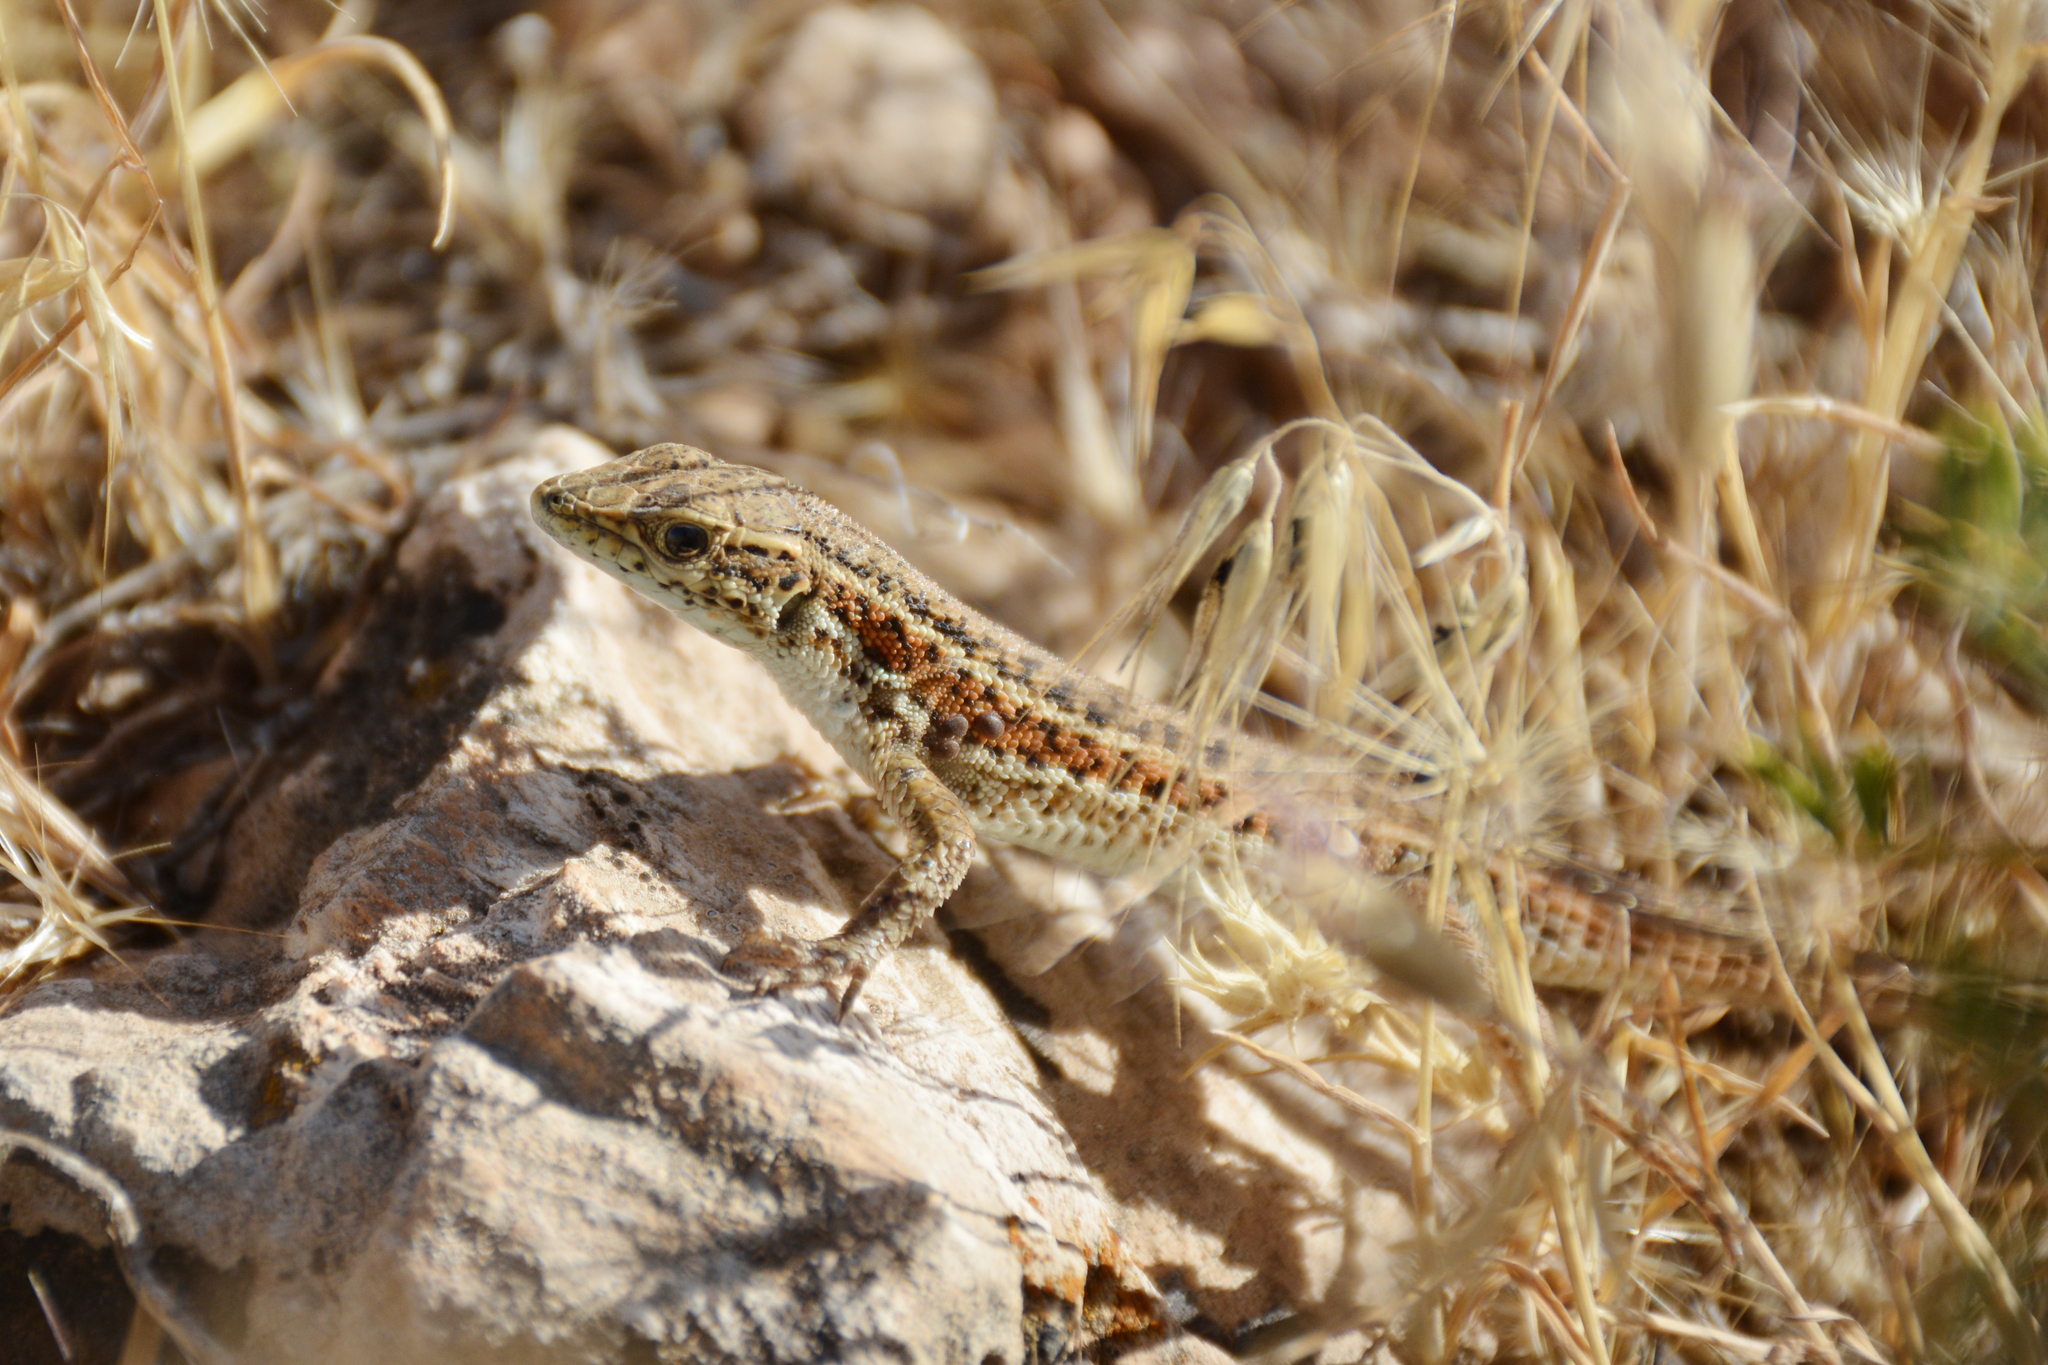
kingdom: Animalia
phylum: Chordata
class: Squamata
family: Lacertidae
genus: Ophisops
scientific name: Ophisops elegans
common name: Snake-eyed lizard
